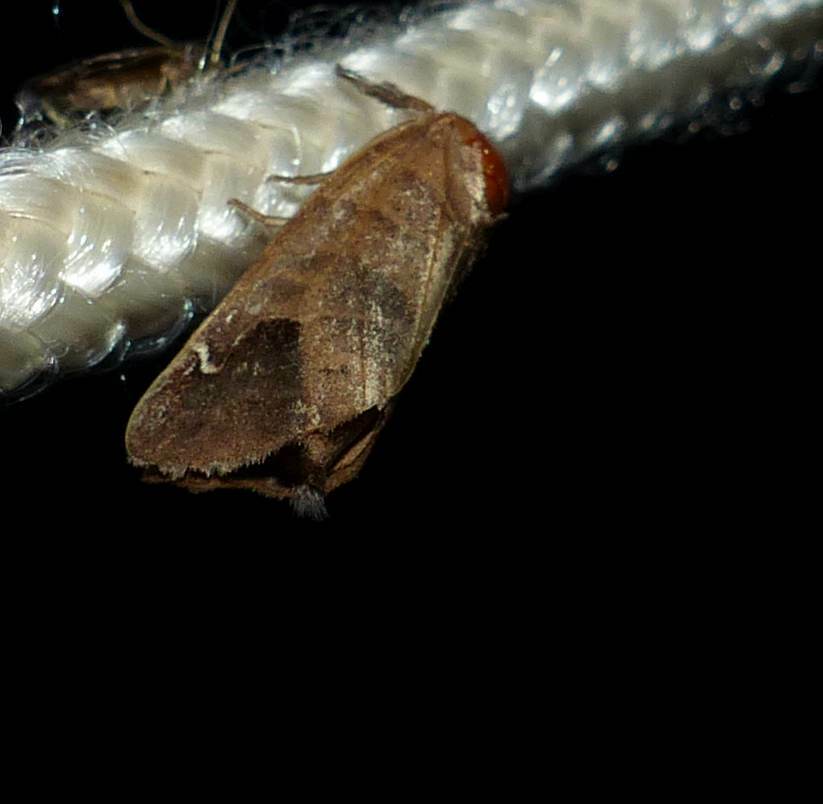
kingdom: Animalia
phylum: Arthropoda
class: Insecta
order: Lepidoptera
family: Notodontidae
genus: Clostera
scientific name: Clostera albosigma
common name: Sigmoid prominent
